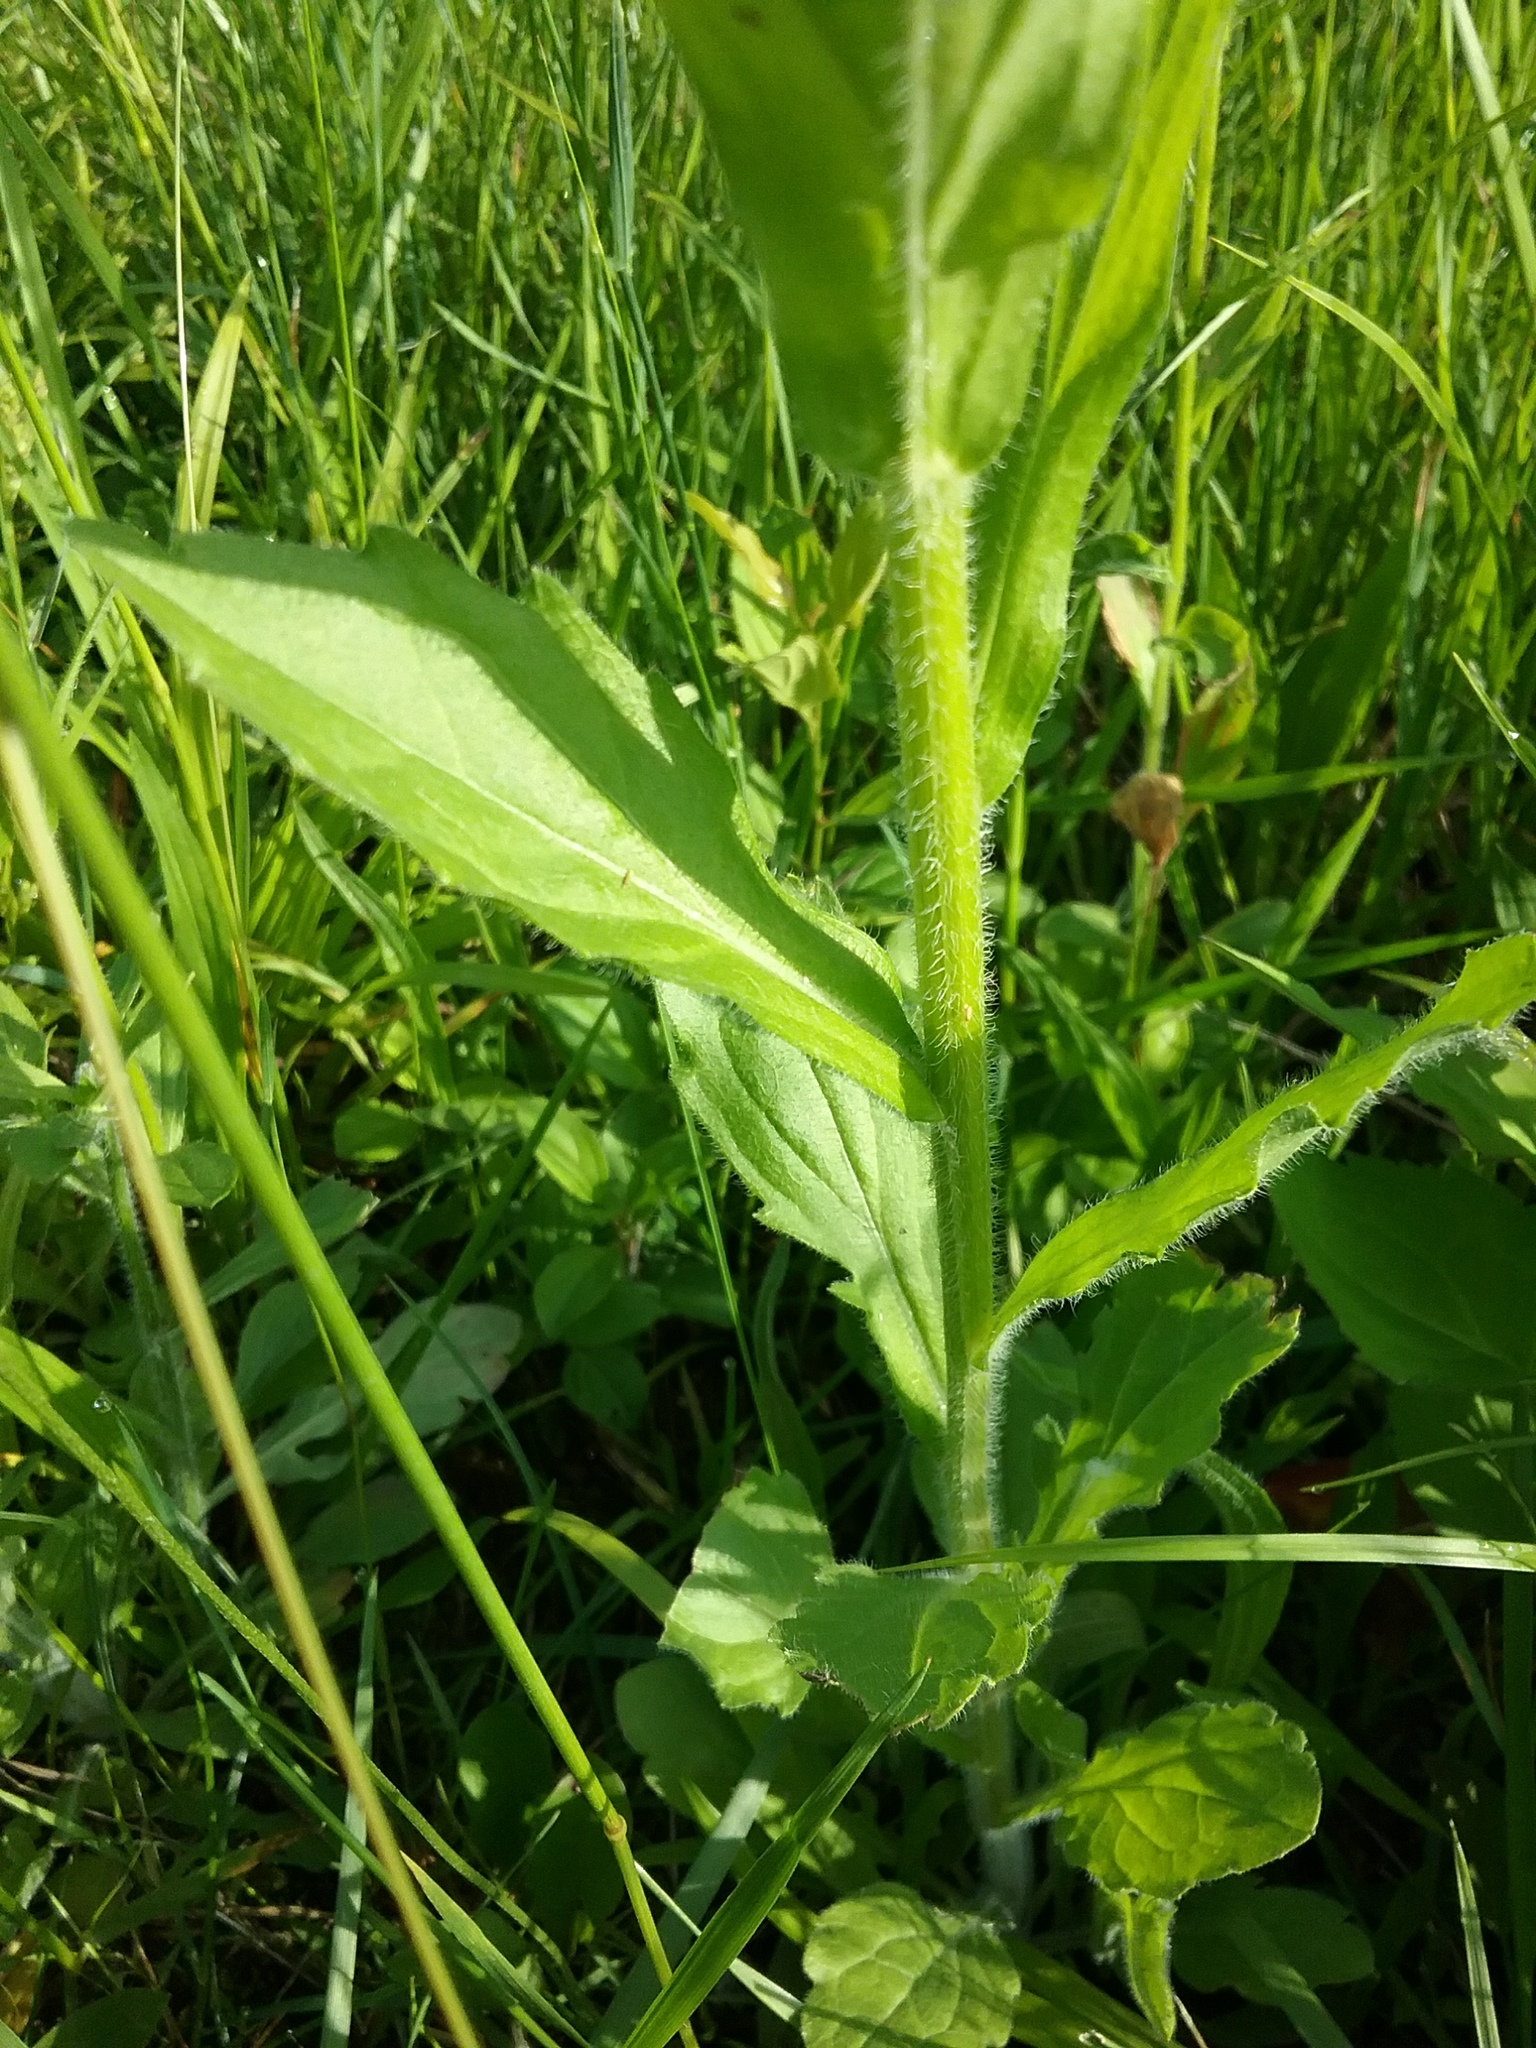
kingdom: Plantae
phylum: Tracheophyta
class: Magnoliopsida
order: Asterales
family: Asteraceae
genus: Erigeron
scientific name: Erigeron annuus
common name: Tall fleabane
